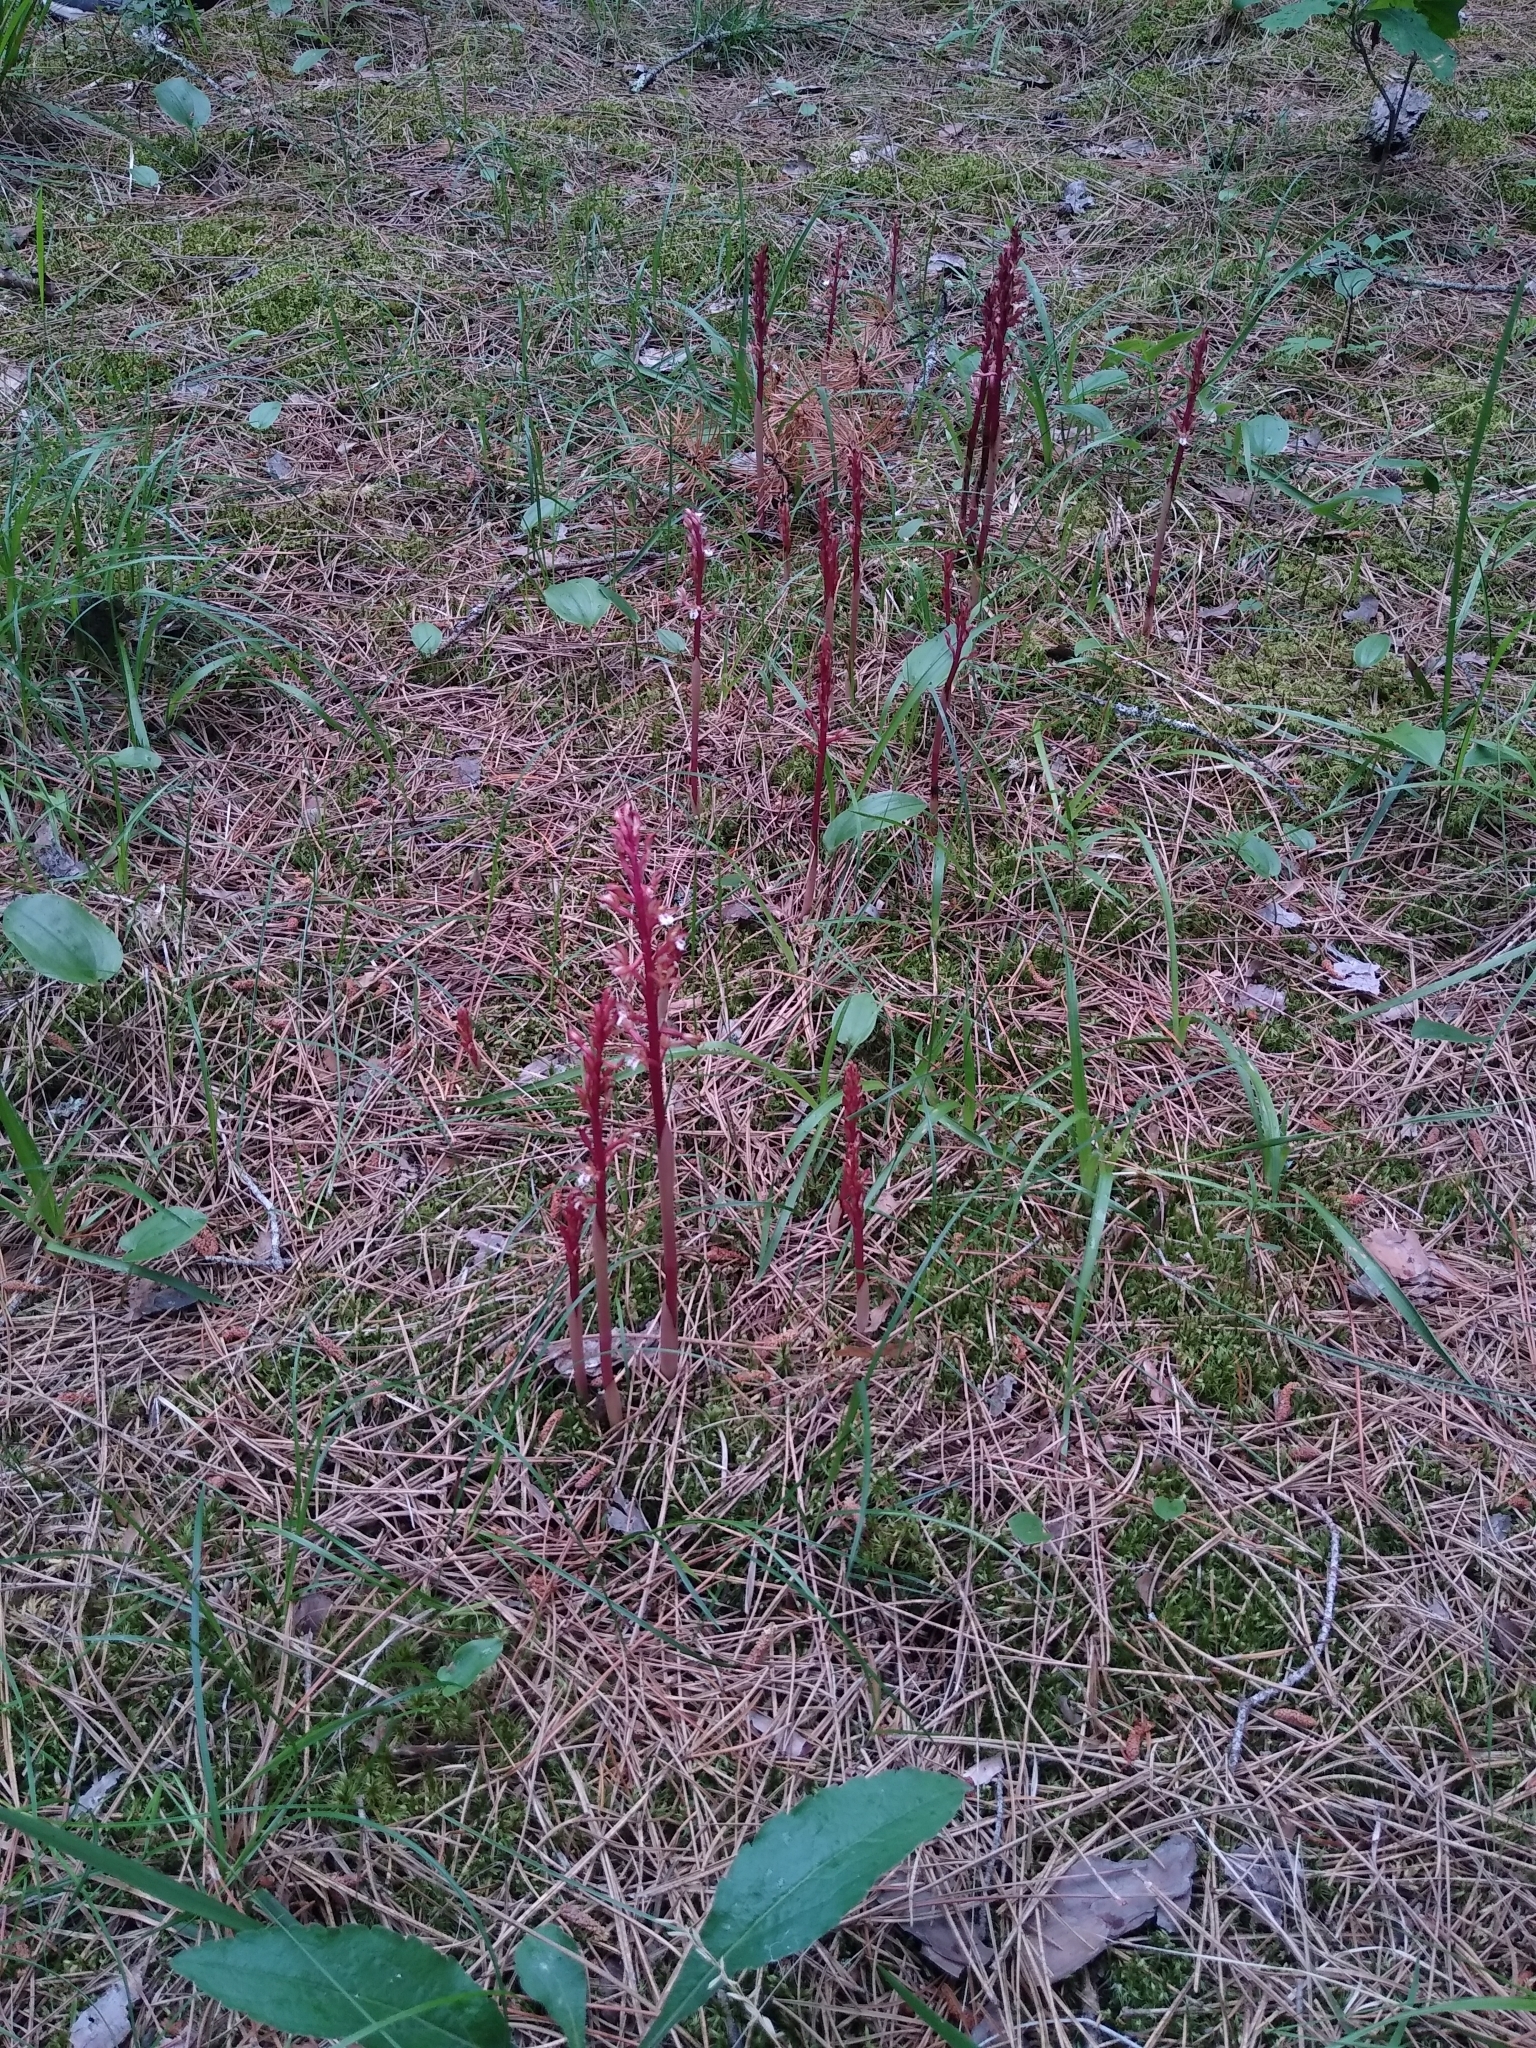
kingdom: Plantae
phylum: Tracheophyta
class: Liliopsida
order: Asparagales
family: Orchidaceae
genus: Corallorhiza
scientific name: Corallorhiza maculata
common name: Spotted coralroot
